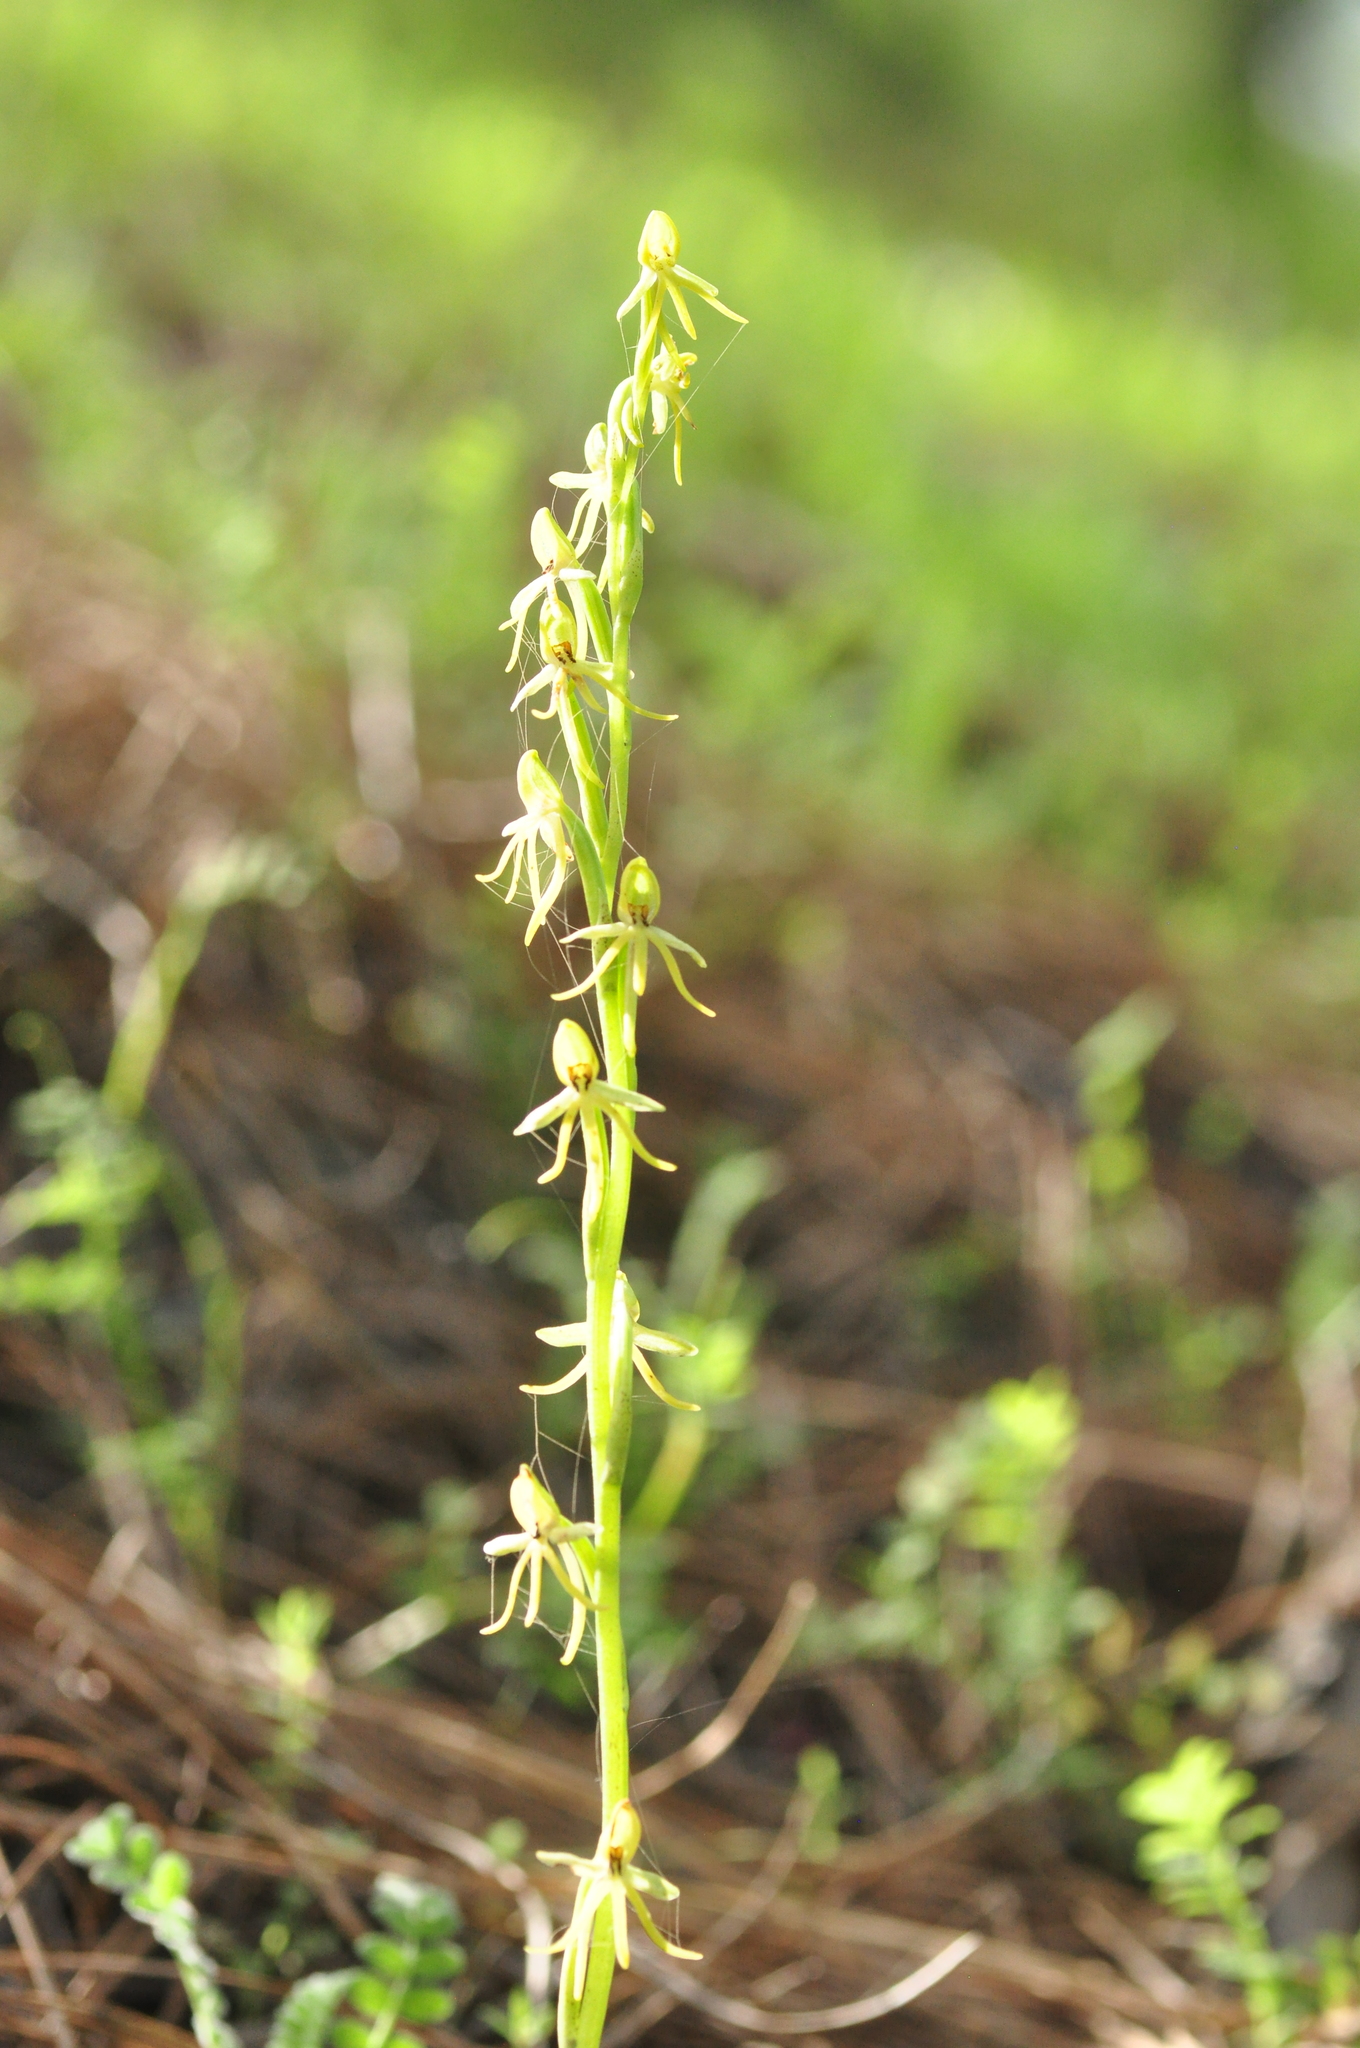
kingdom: Plantae
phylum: Tracheophyta
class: Liliopsida
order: Asparagales
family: Orchidaceae
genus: Habenaria
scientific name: Habenaria tridactylites
